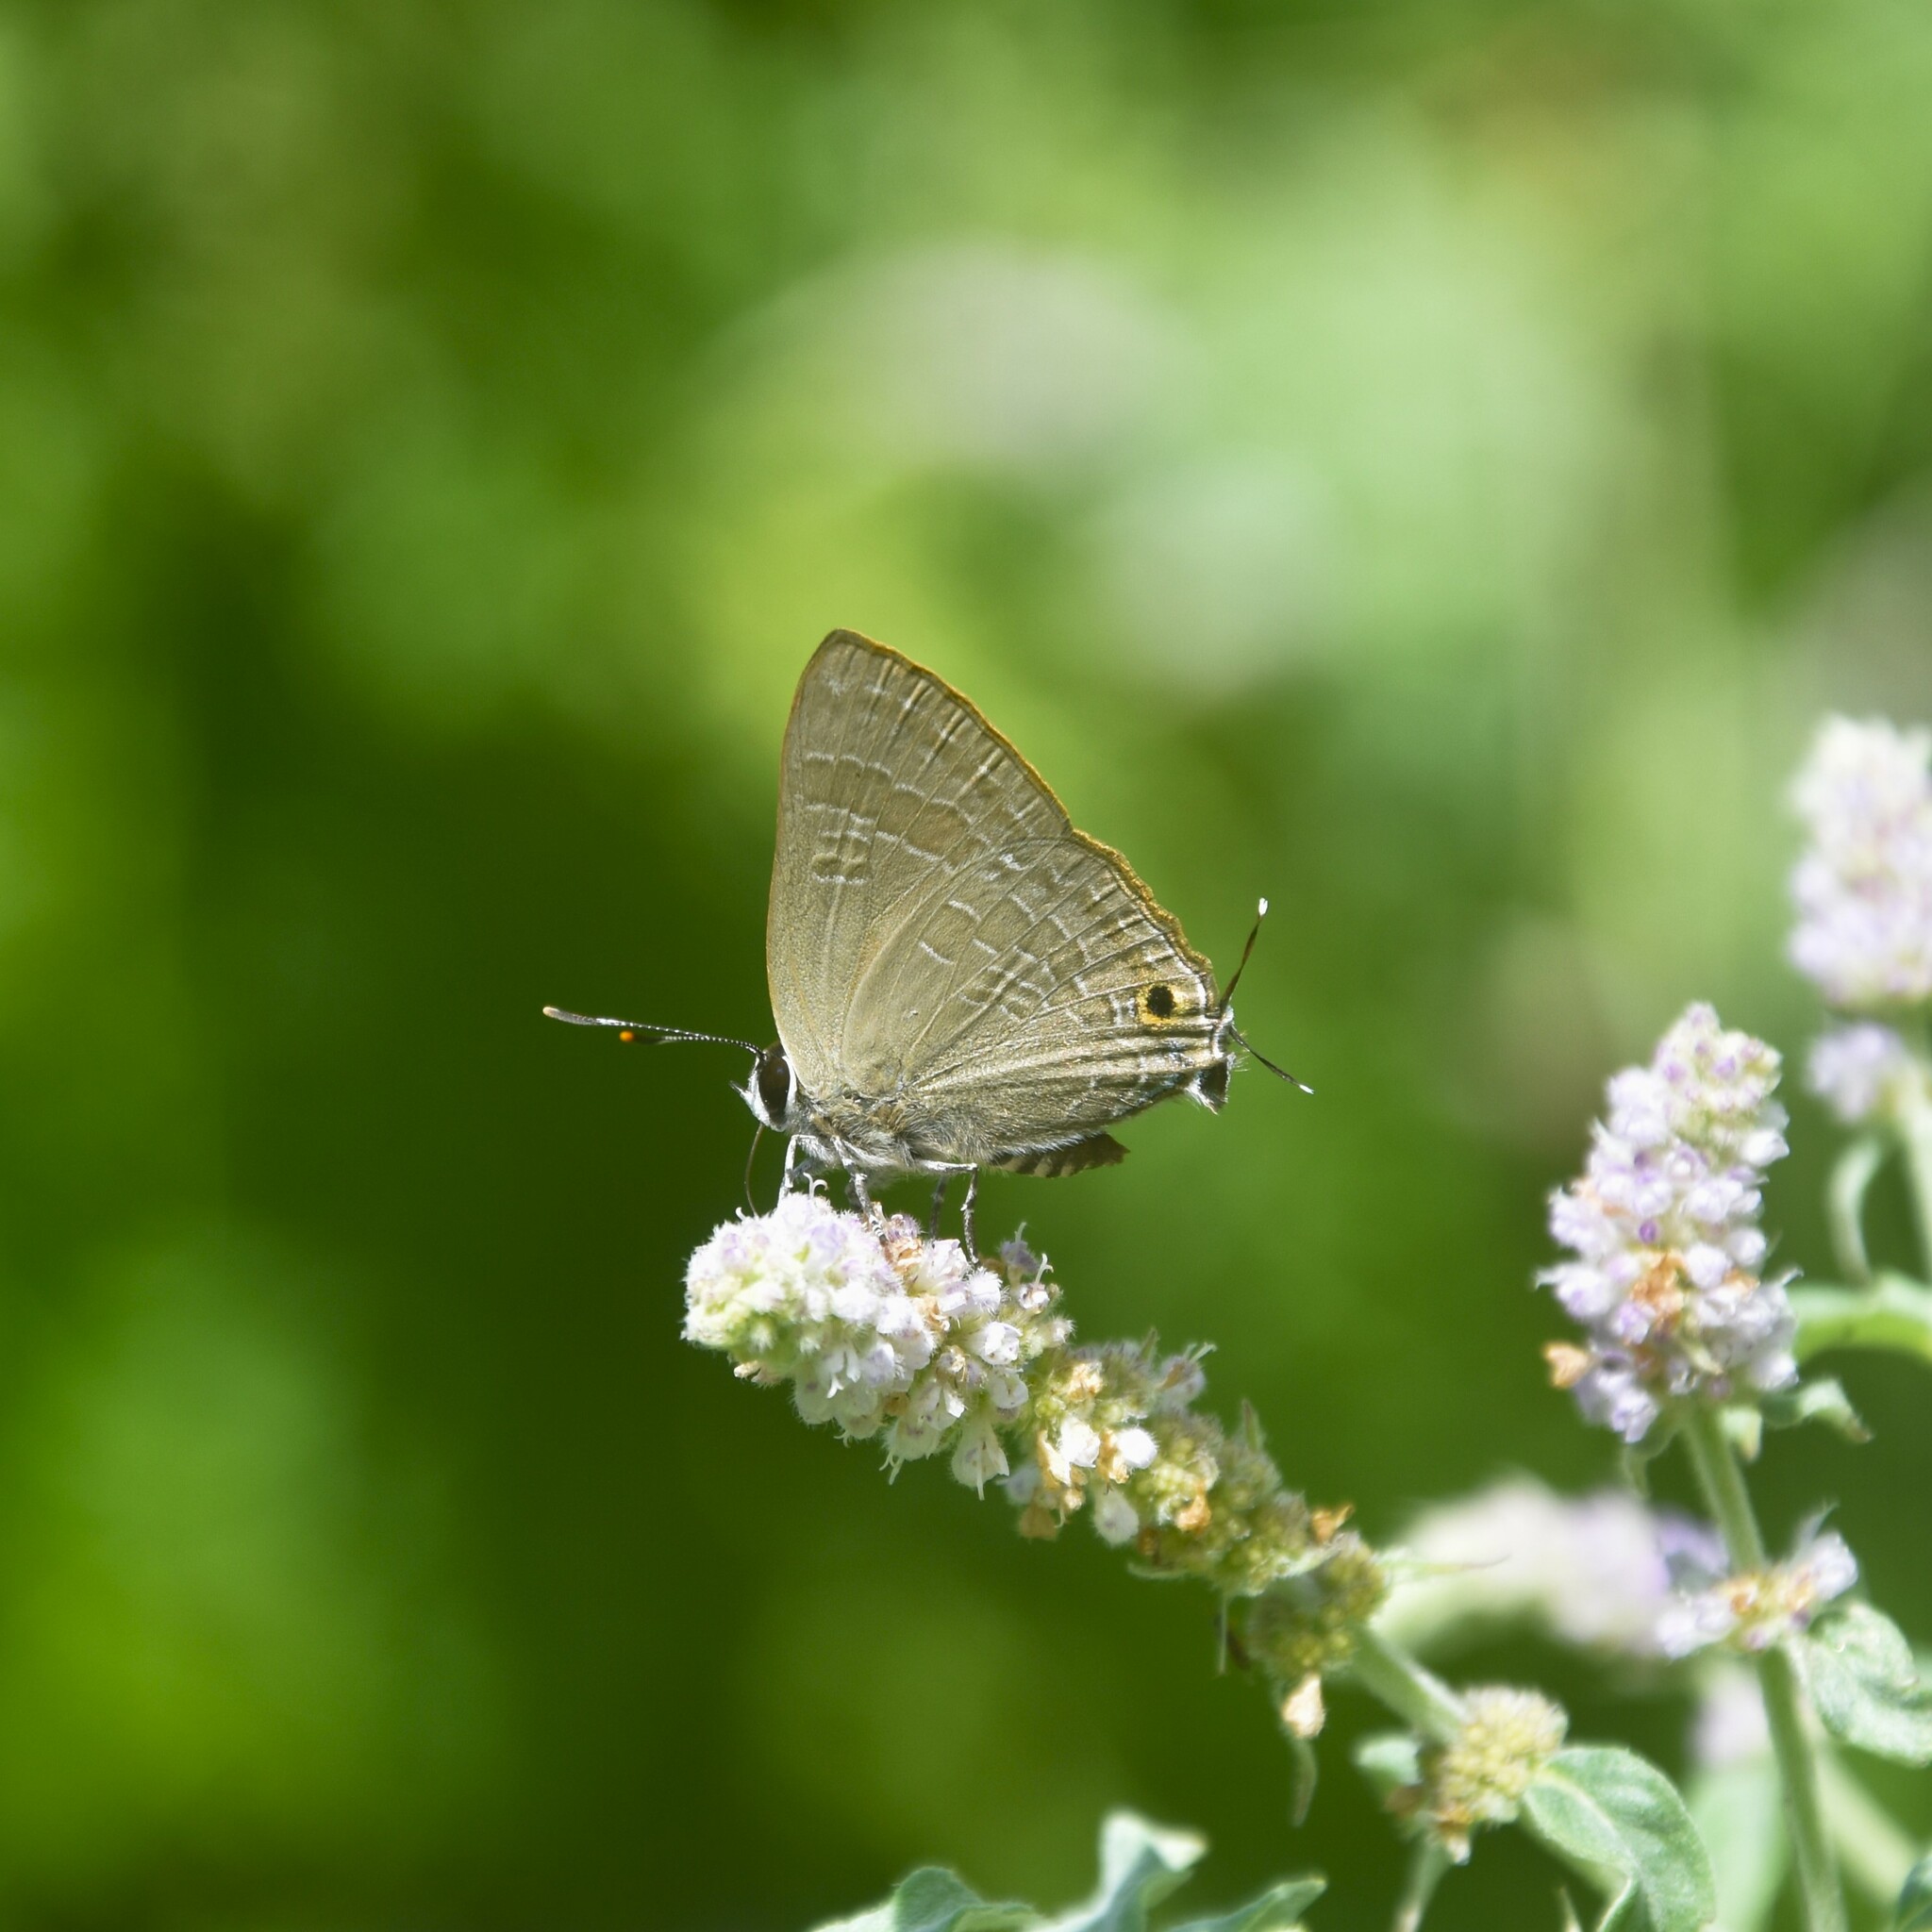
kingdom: Animalia
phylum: Arthropoda
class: Insecta
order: Lepidoptera
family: Lycaenidae
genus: Deudorix
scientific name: Deudorix epijarbas
